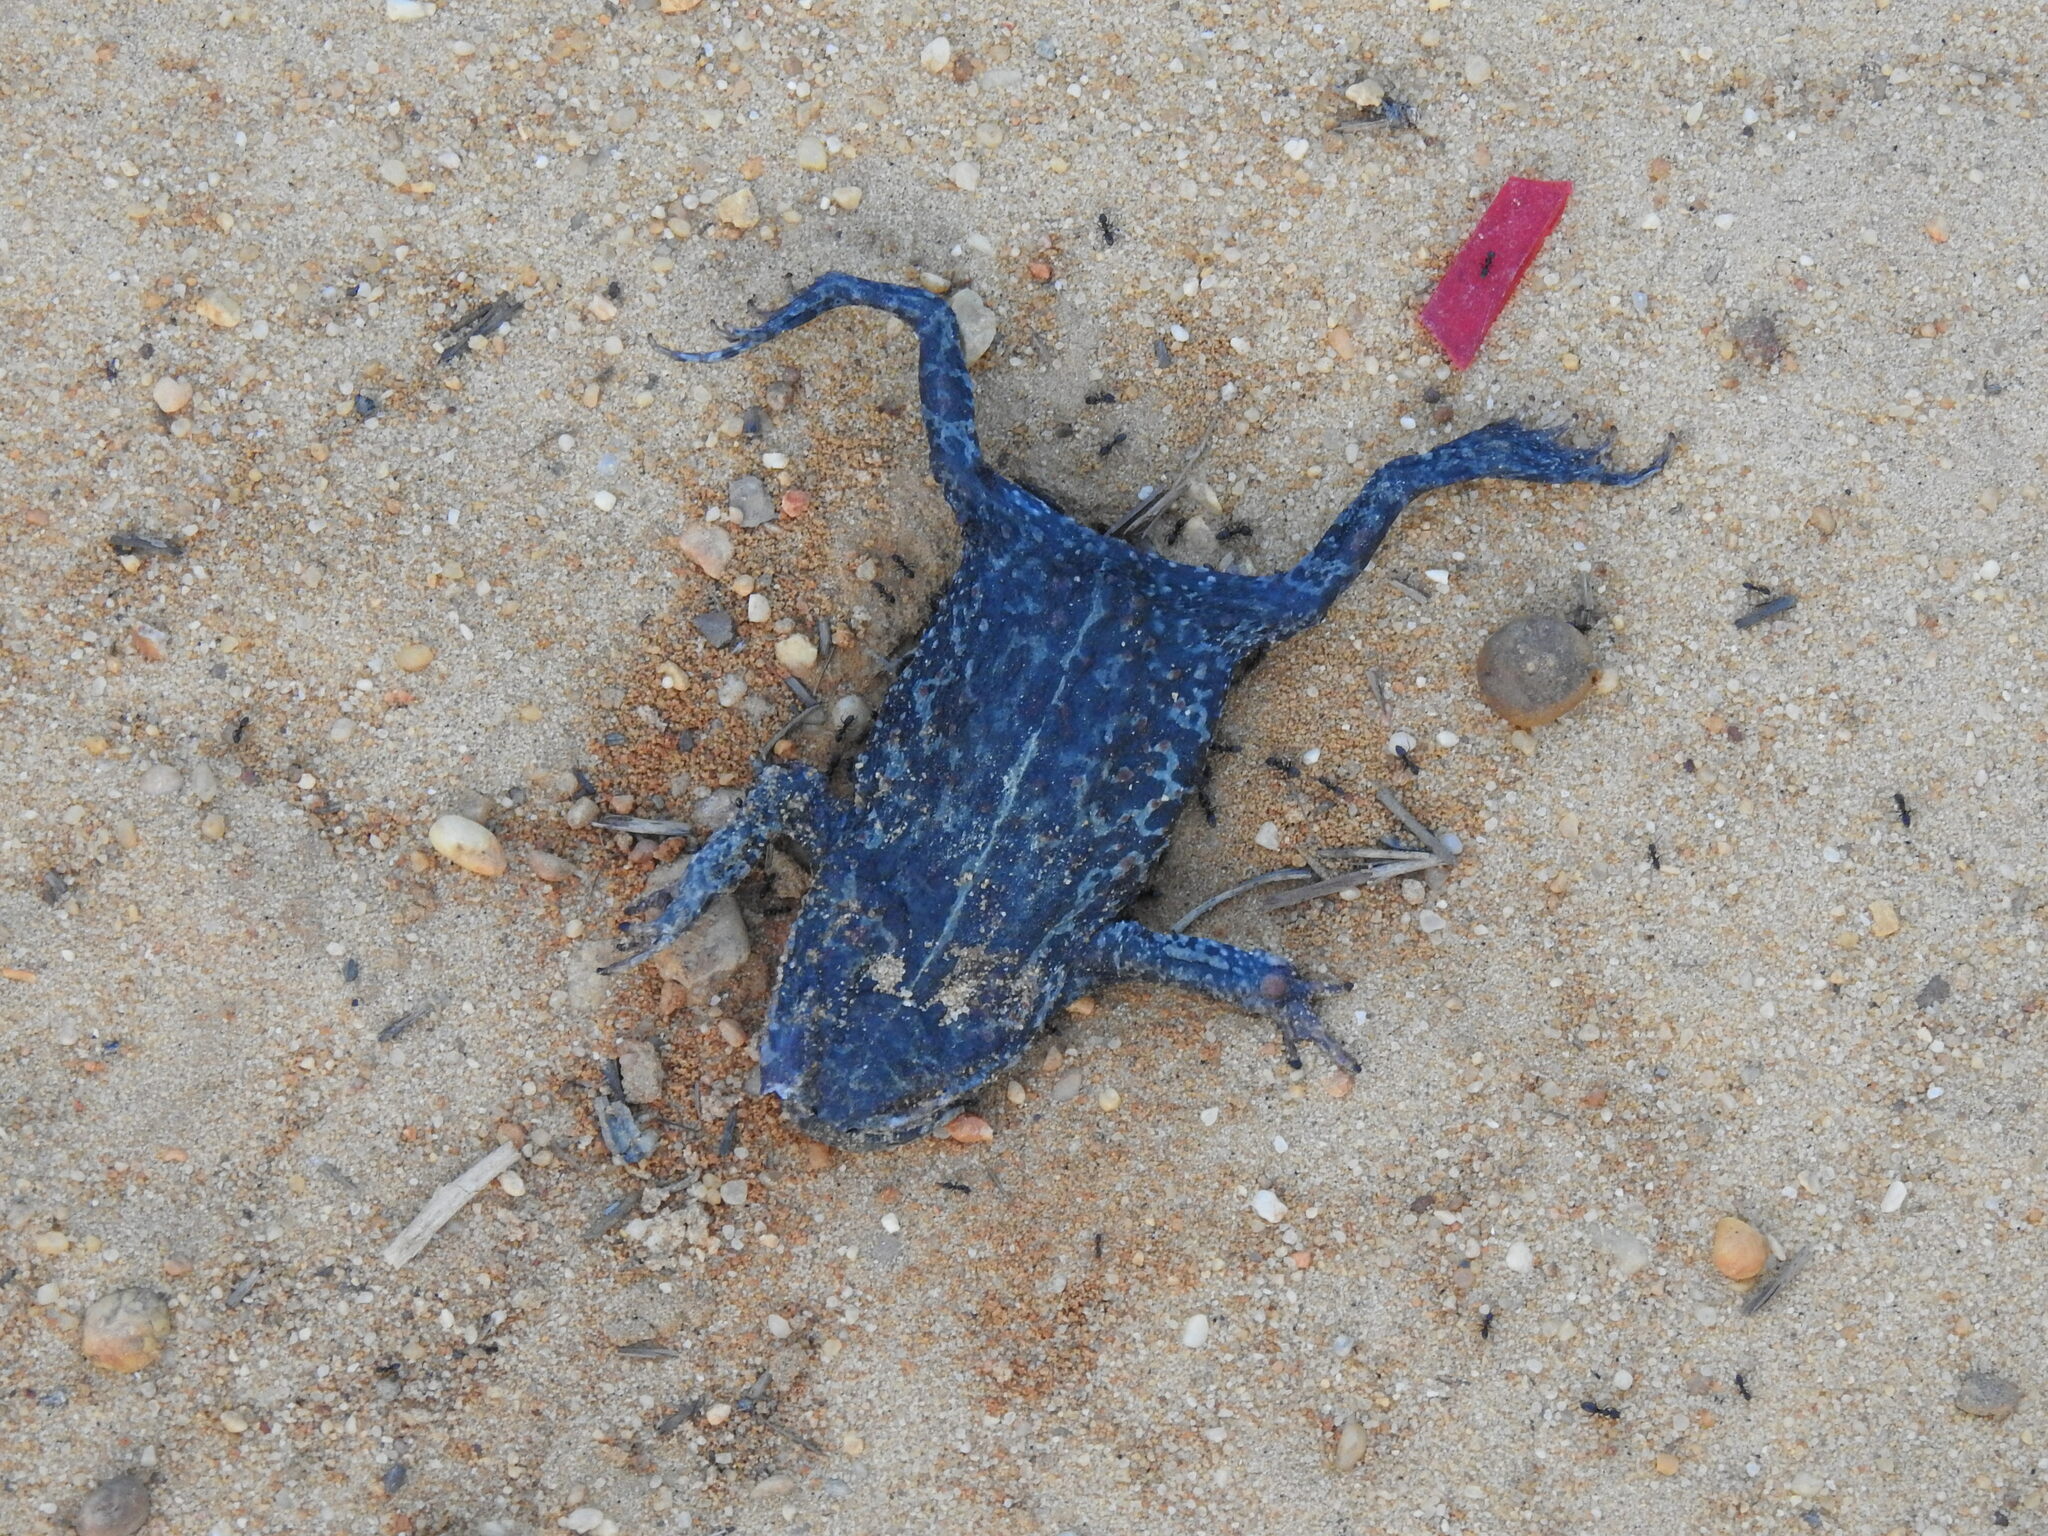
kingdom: Animalia
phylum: Chordata
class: Amphibia
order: Anura
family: Bufonidae
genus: Epidalea
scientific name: Epidalea calamita
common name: Natterjack toad
